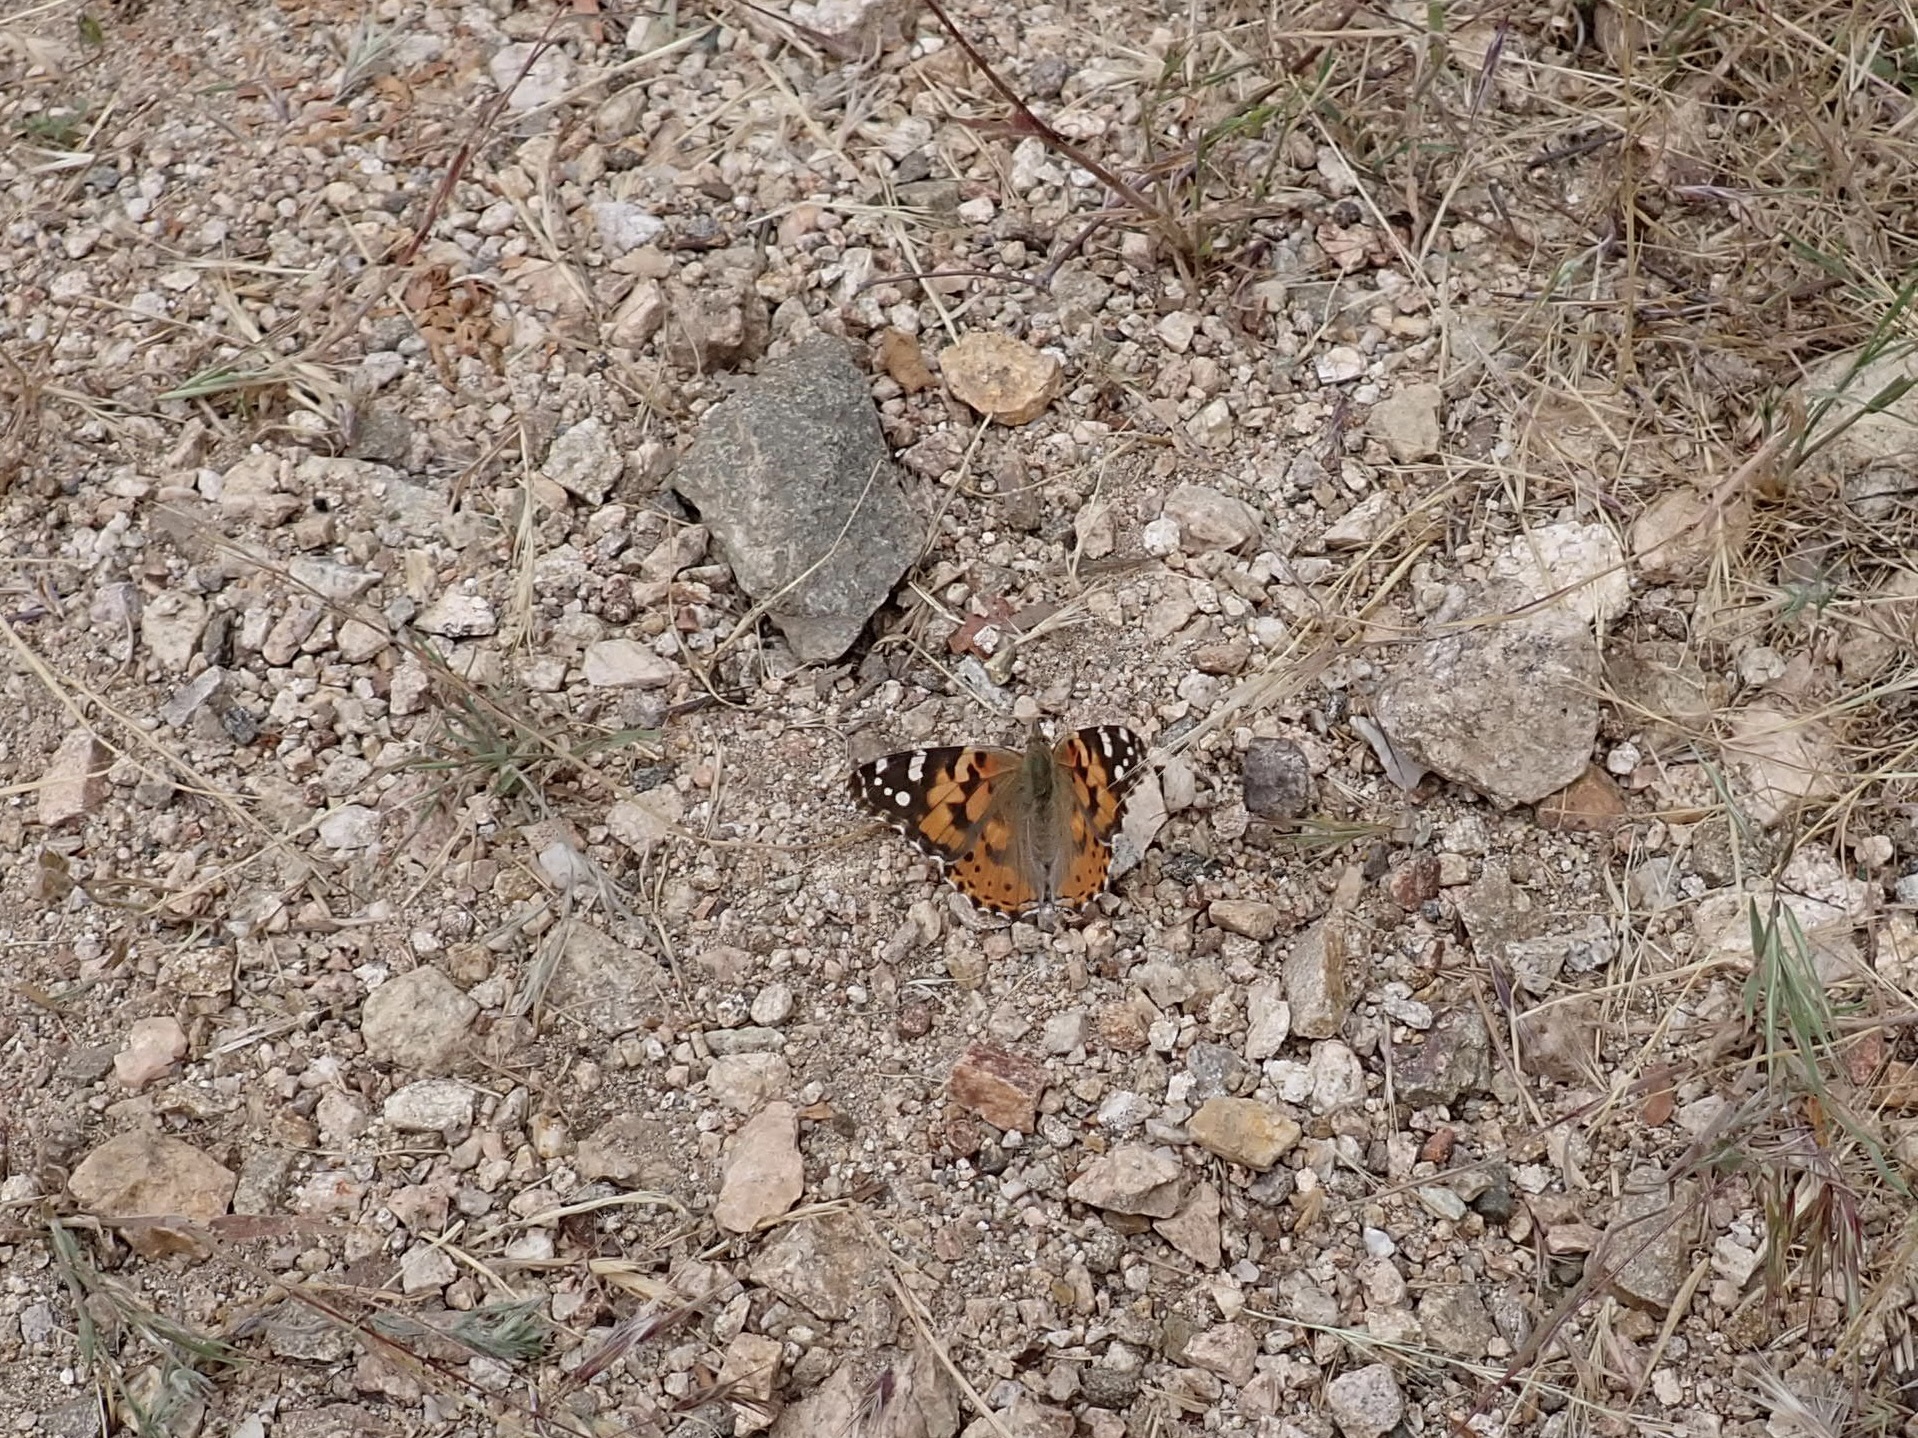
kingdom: Animalia
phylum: Arthropoda
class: Insecta
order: Lepidoptera
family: Nymphalidae
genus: Vanessa
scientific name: Vanessa cardui
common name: Painted lady
